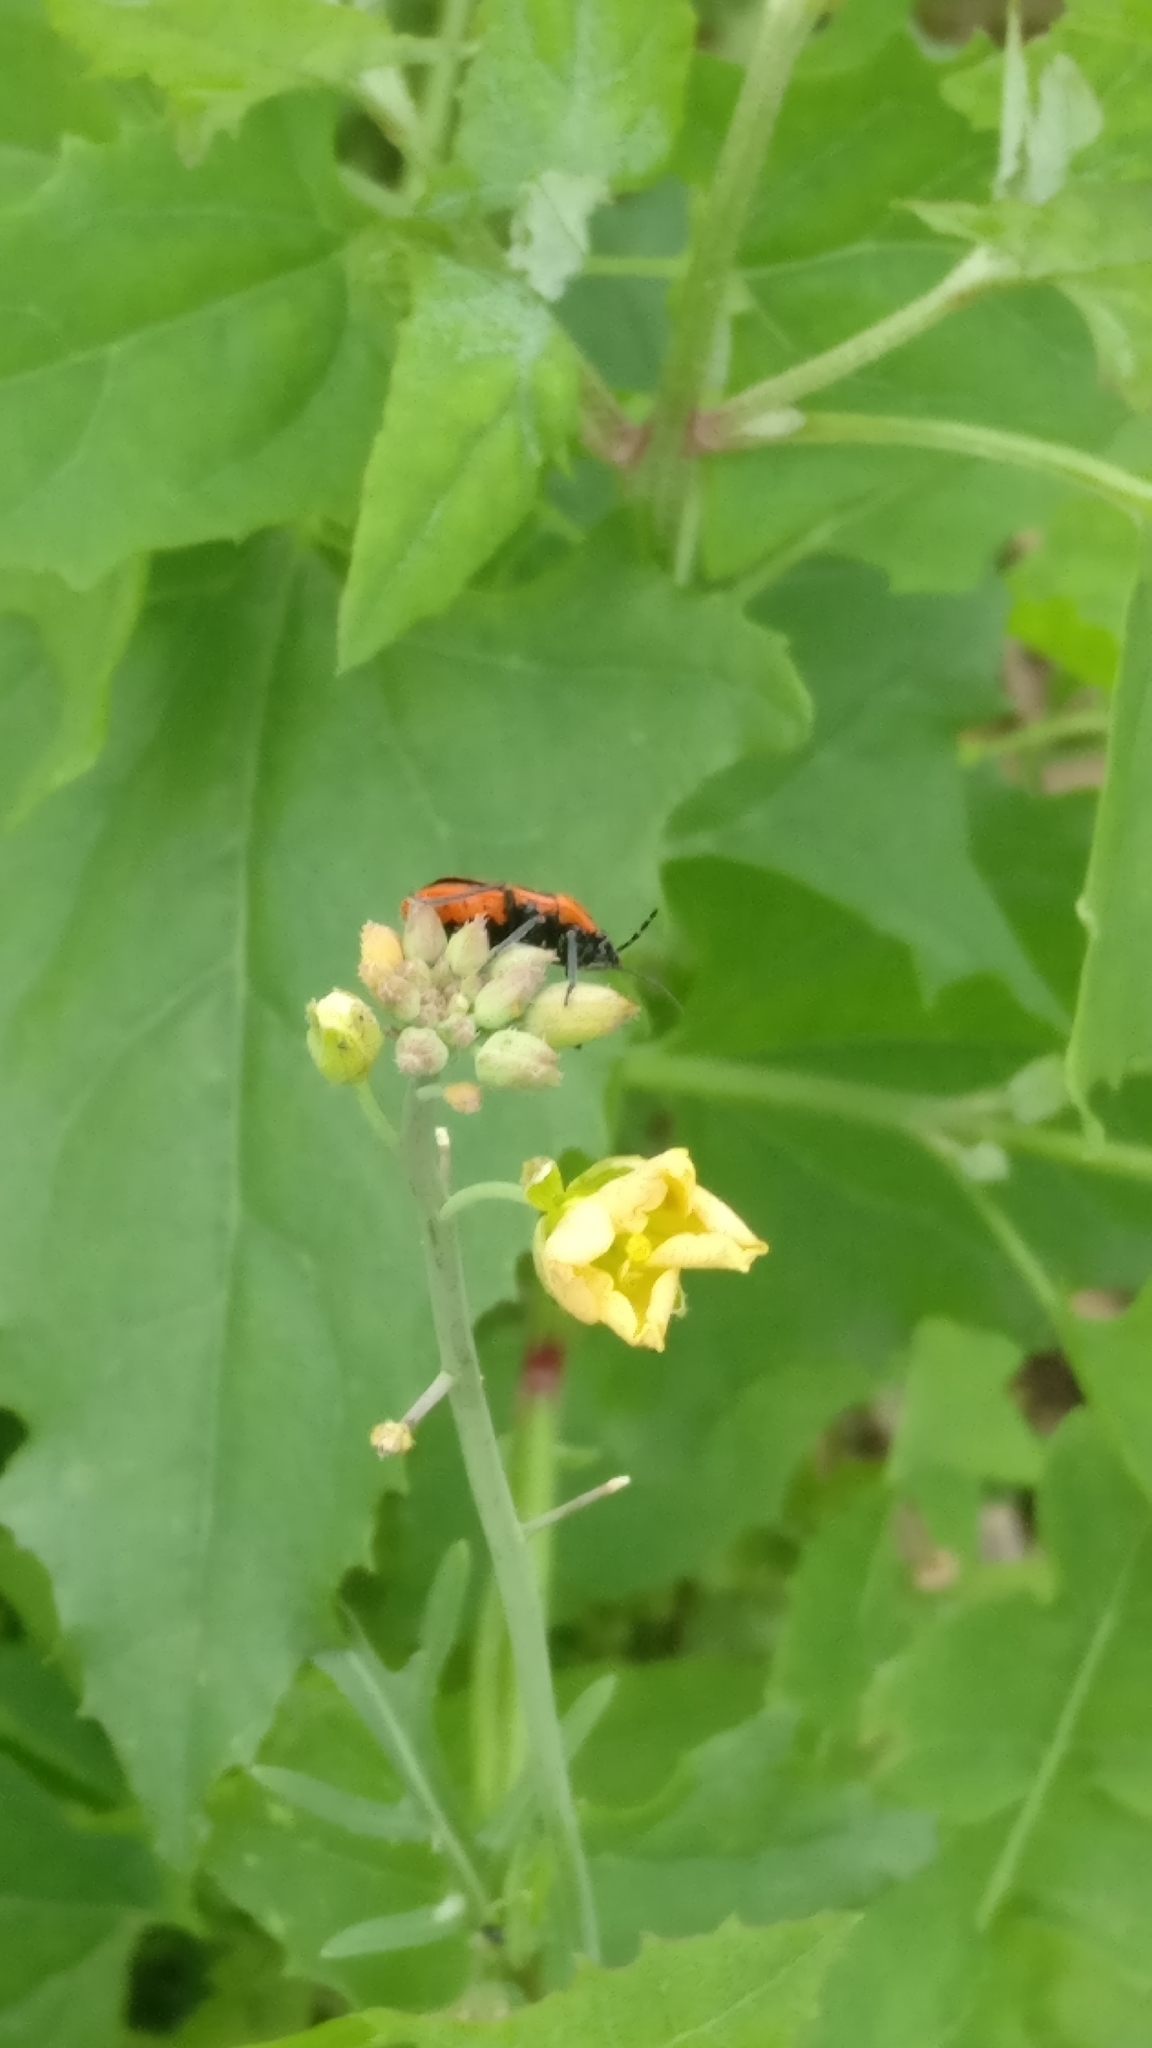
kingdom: Animalia
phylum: Arthropoda
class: Insecta
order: Hemiptera
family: Pentatomidae
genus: Eurydema
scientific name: Eurydema ornata
